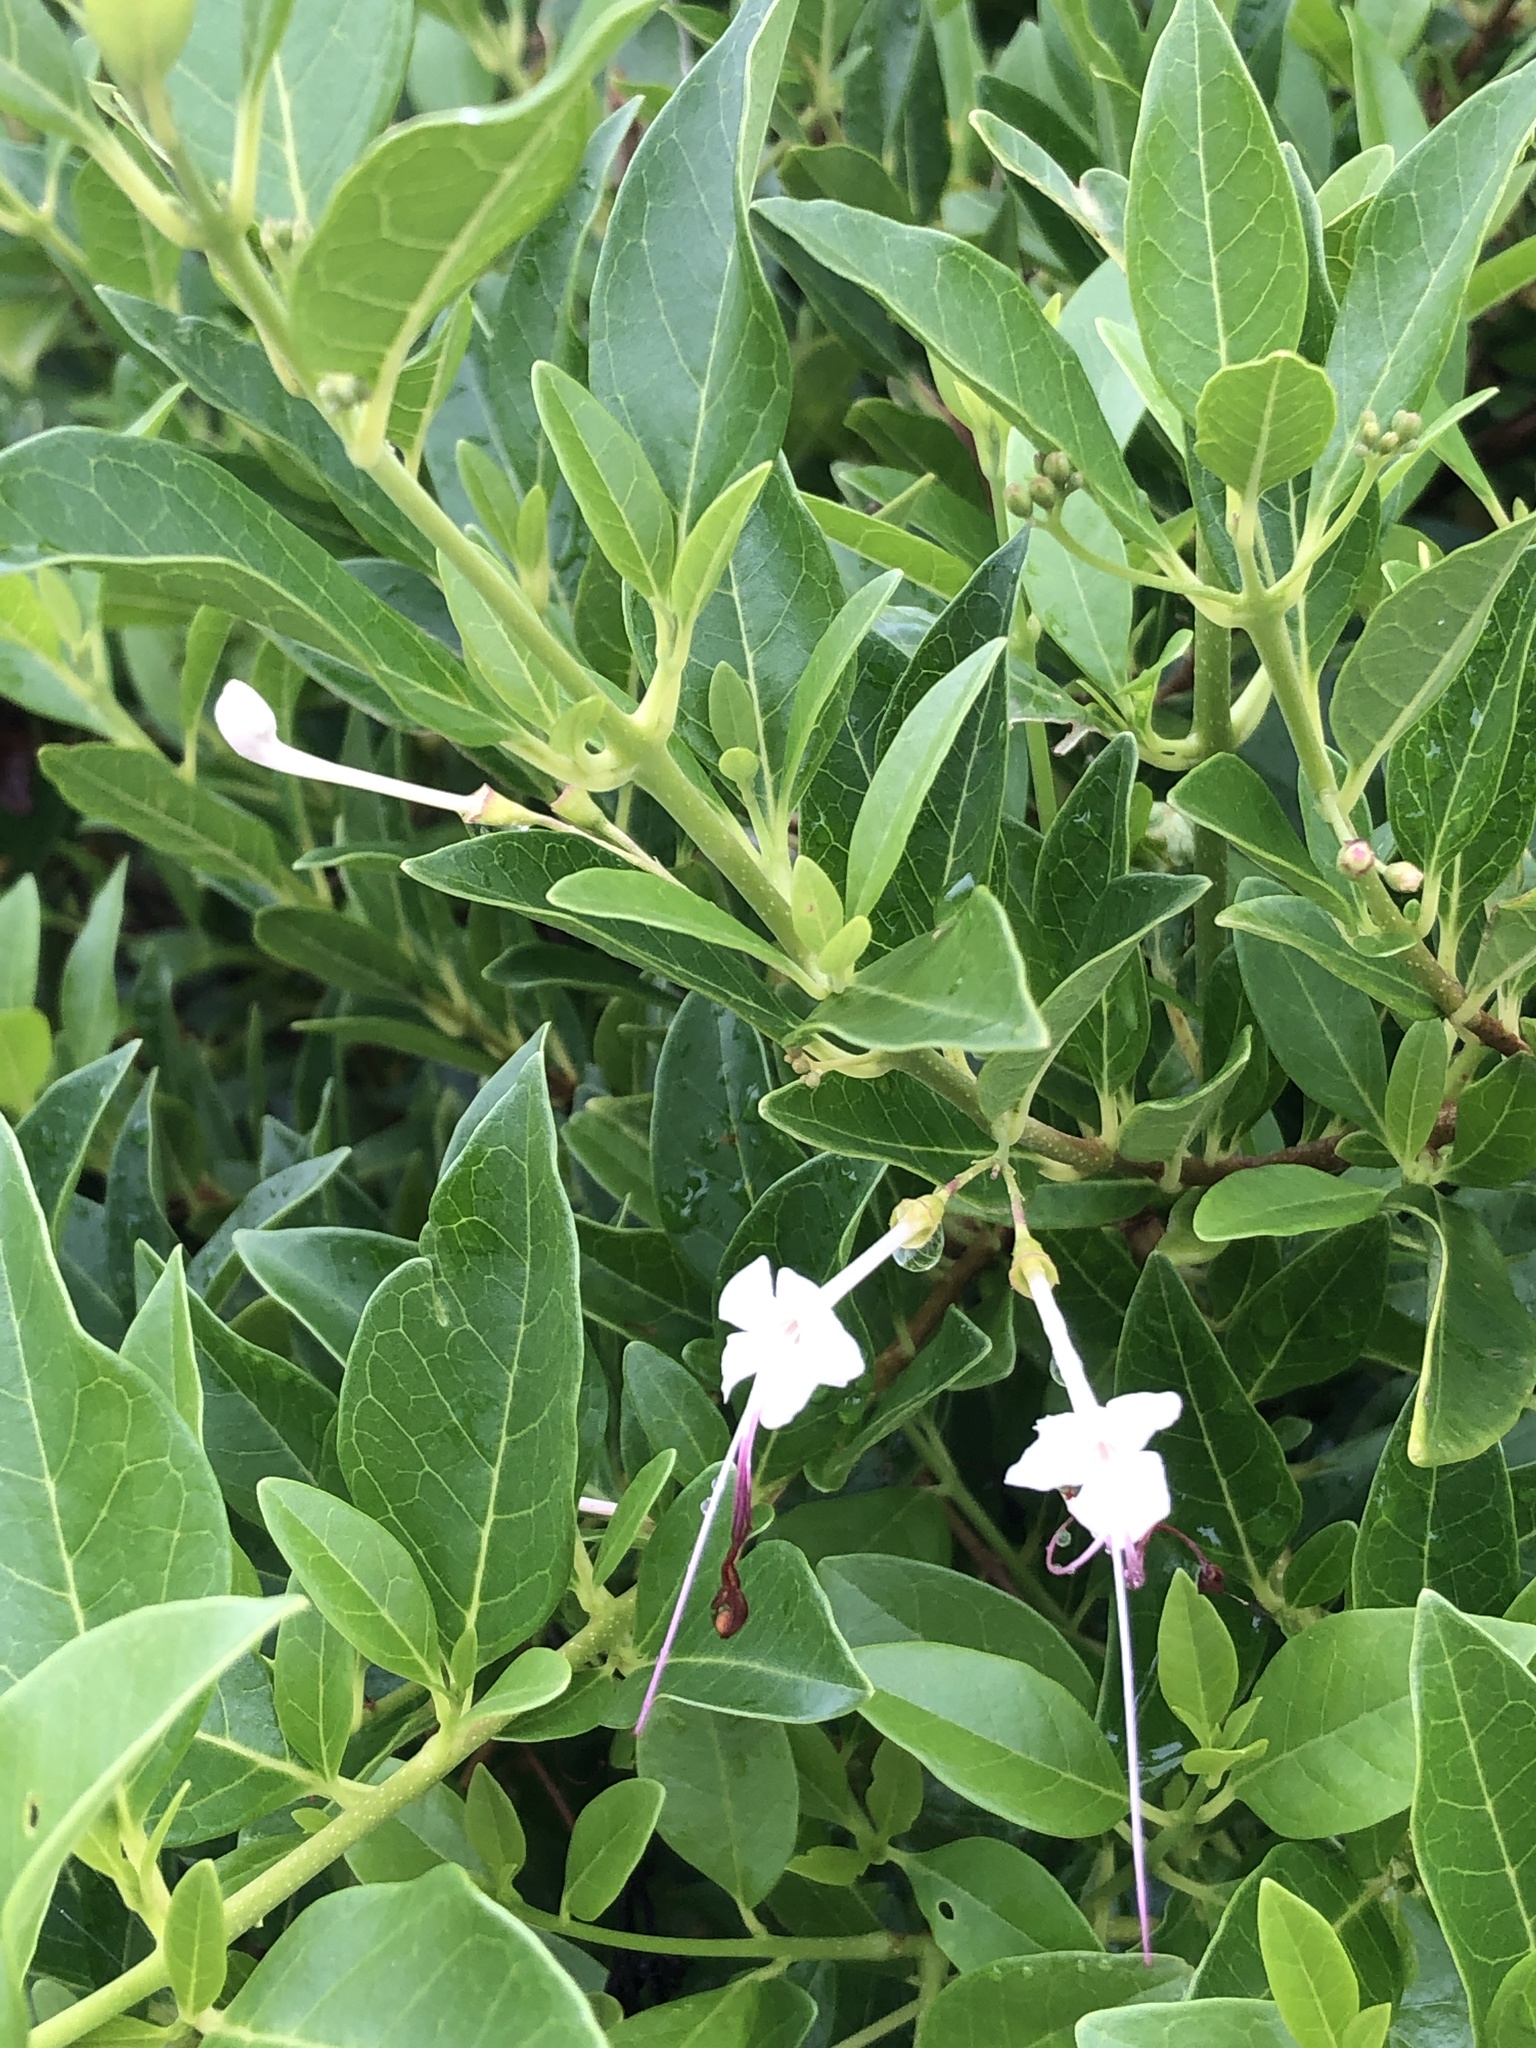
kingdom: Plantae
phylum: Tracheophyta
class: Magnoliopsida
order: Lamiales
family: Lamiaceae
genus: Volkameria
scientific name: Volkameria inermis
